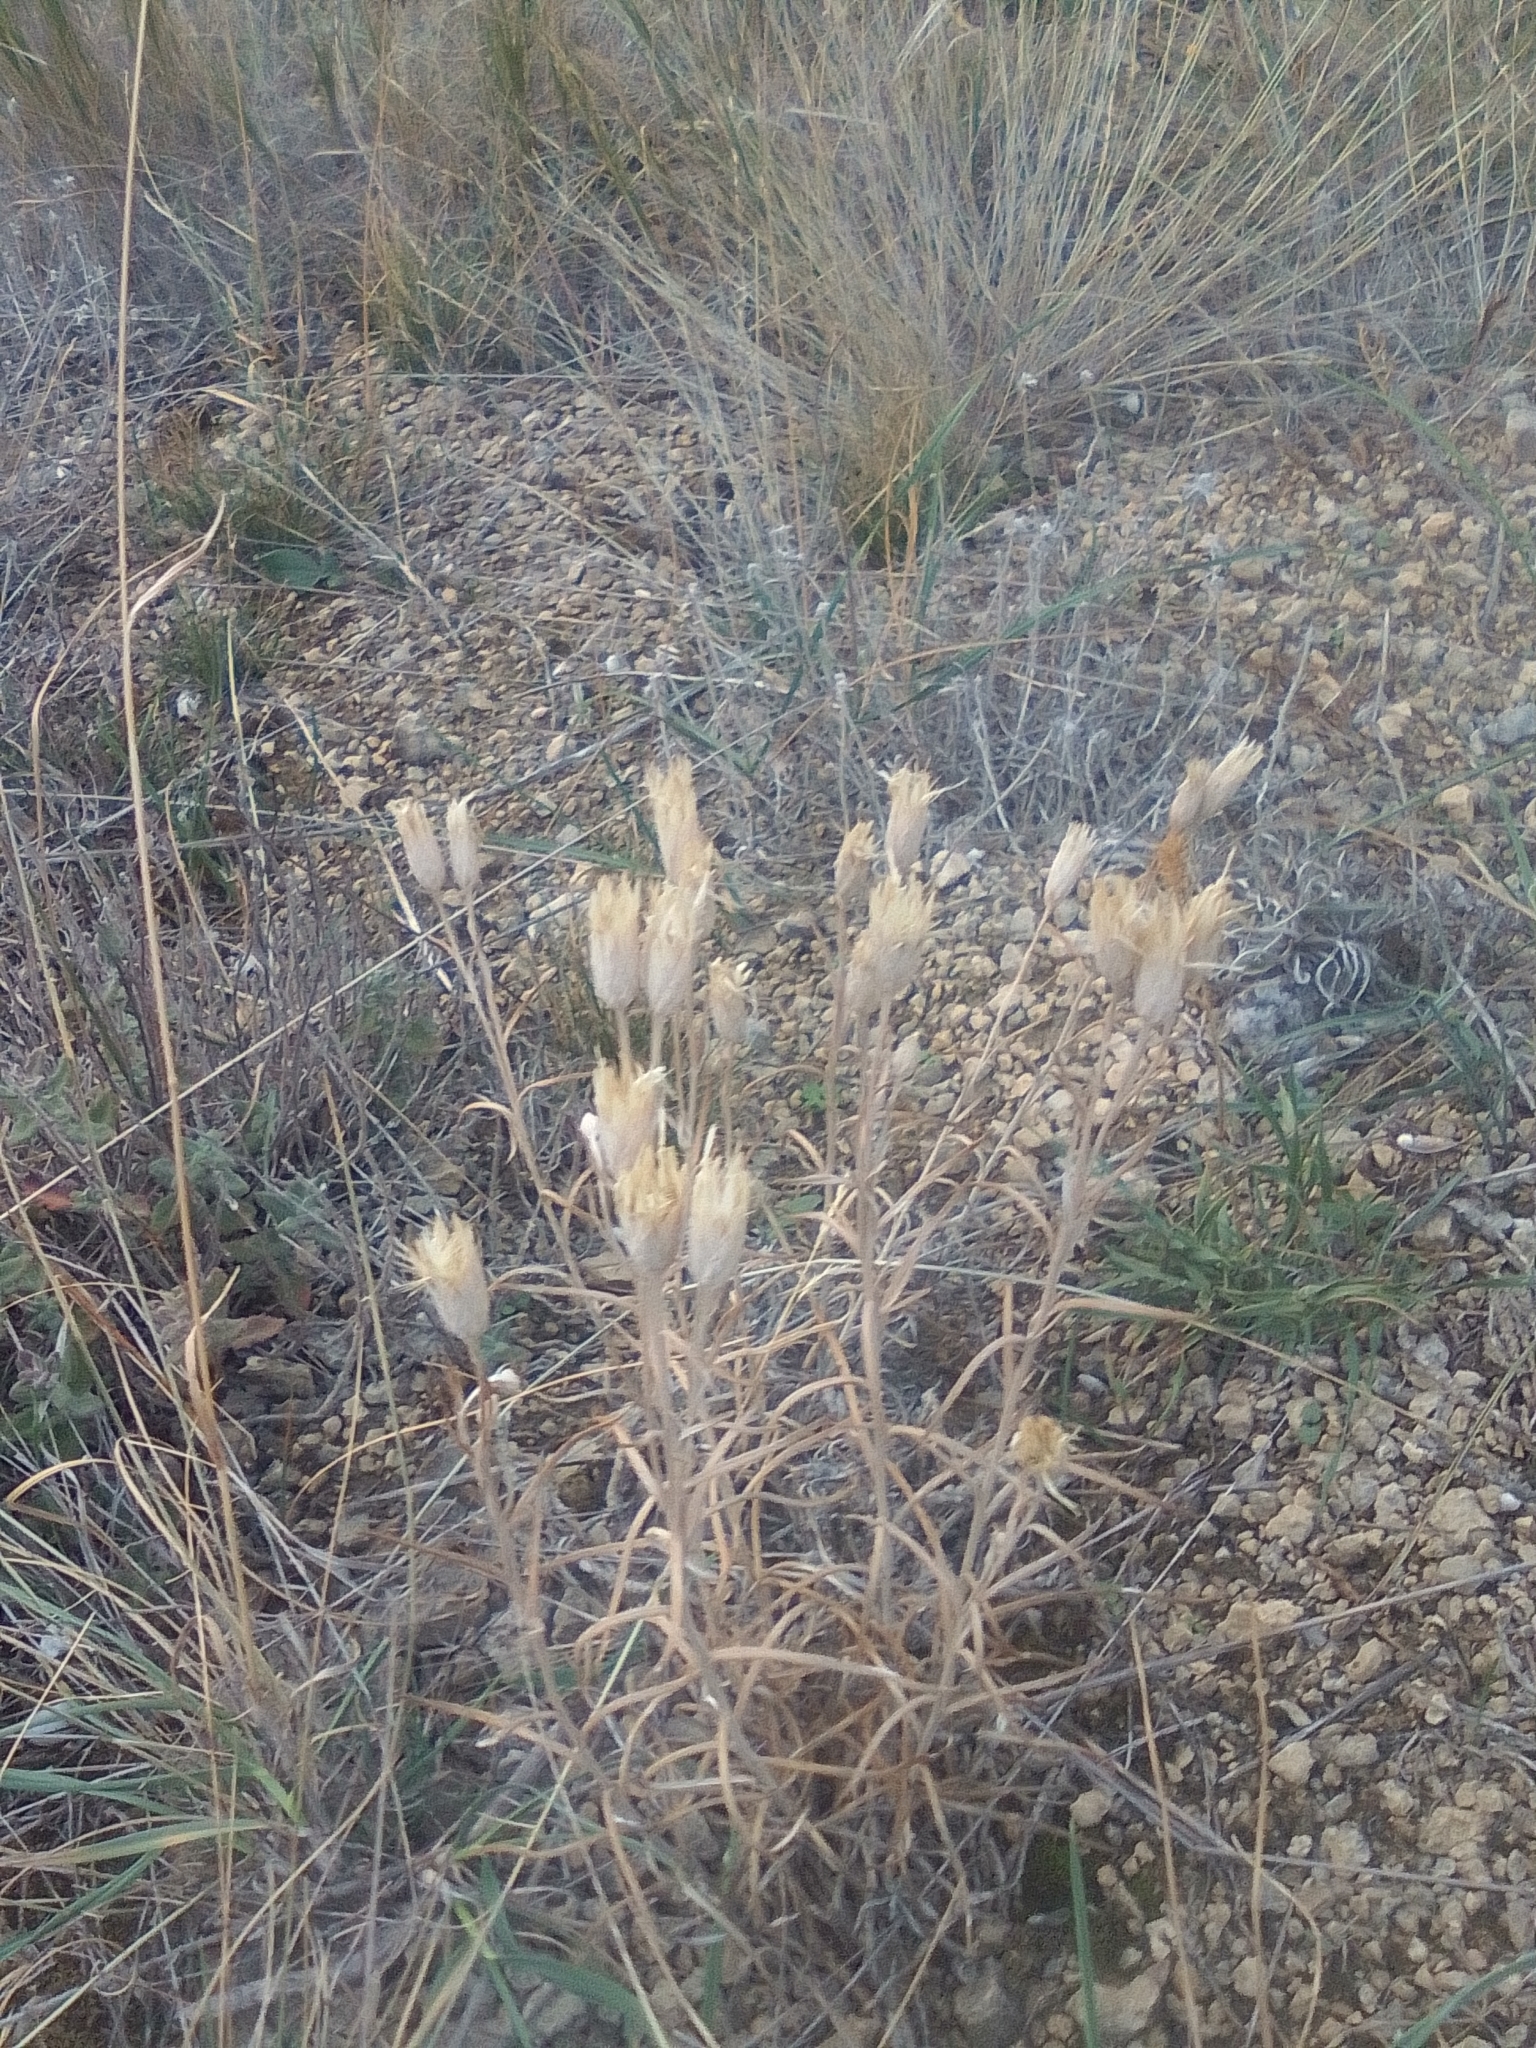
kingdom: Plantae
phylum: Tracheophyta
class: Magnoliopsida
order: Asterales
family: Asteraceae
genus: Jurinea
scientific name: Jurinea stoechadifolia
